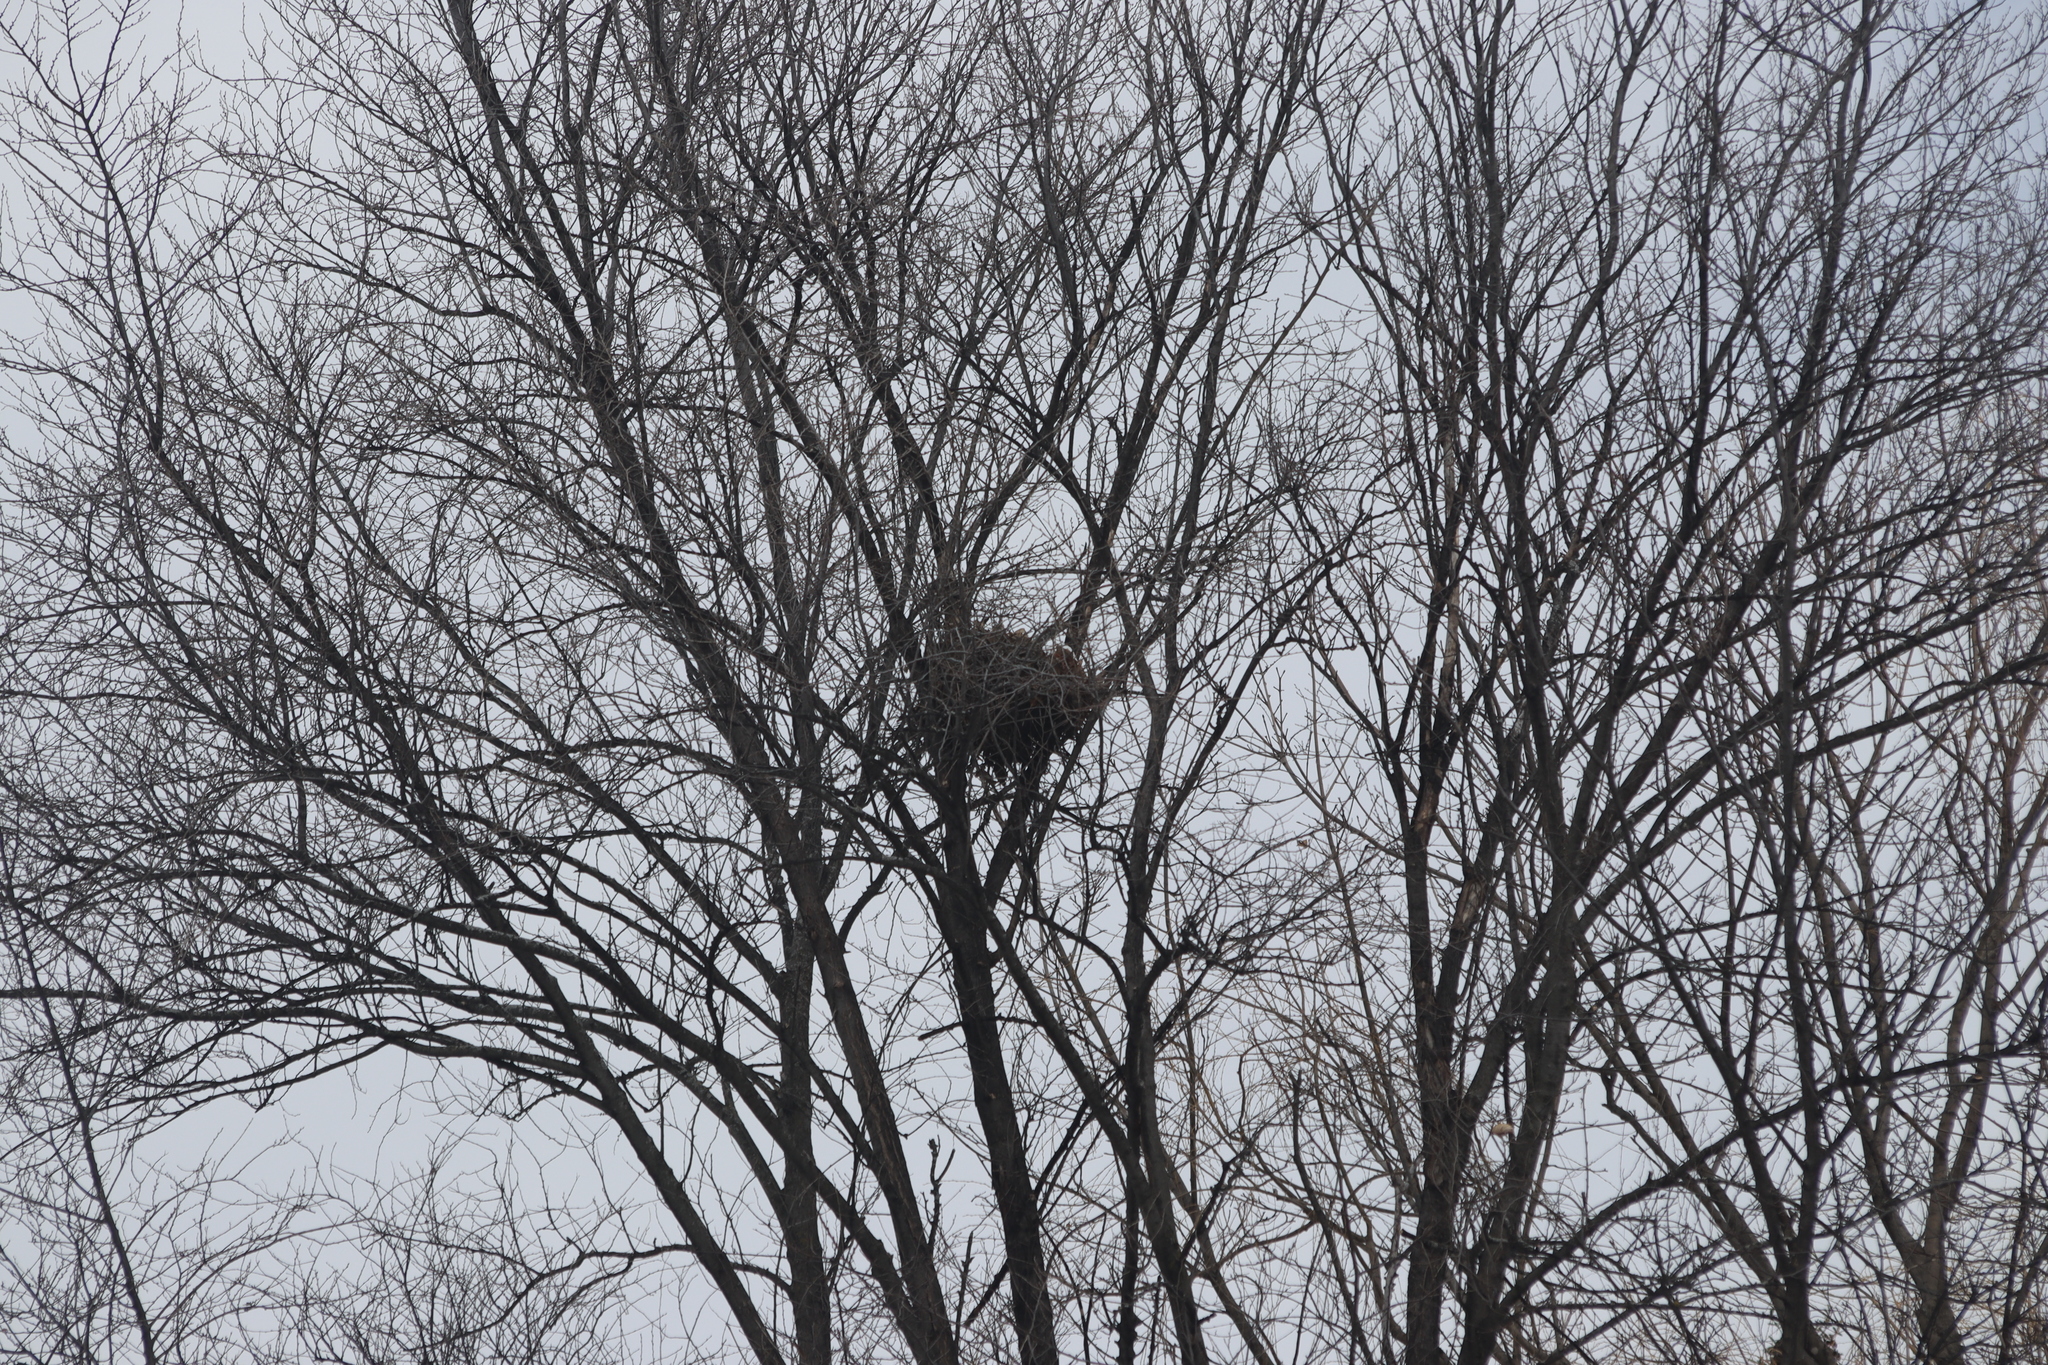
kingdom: Animalia
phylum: Chordata
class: Mammalia
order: Rodentia
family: Sciuridae
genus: Sciurus
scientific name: Sciurus carolinensis
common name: Eastern gray squirrel
